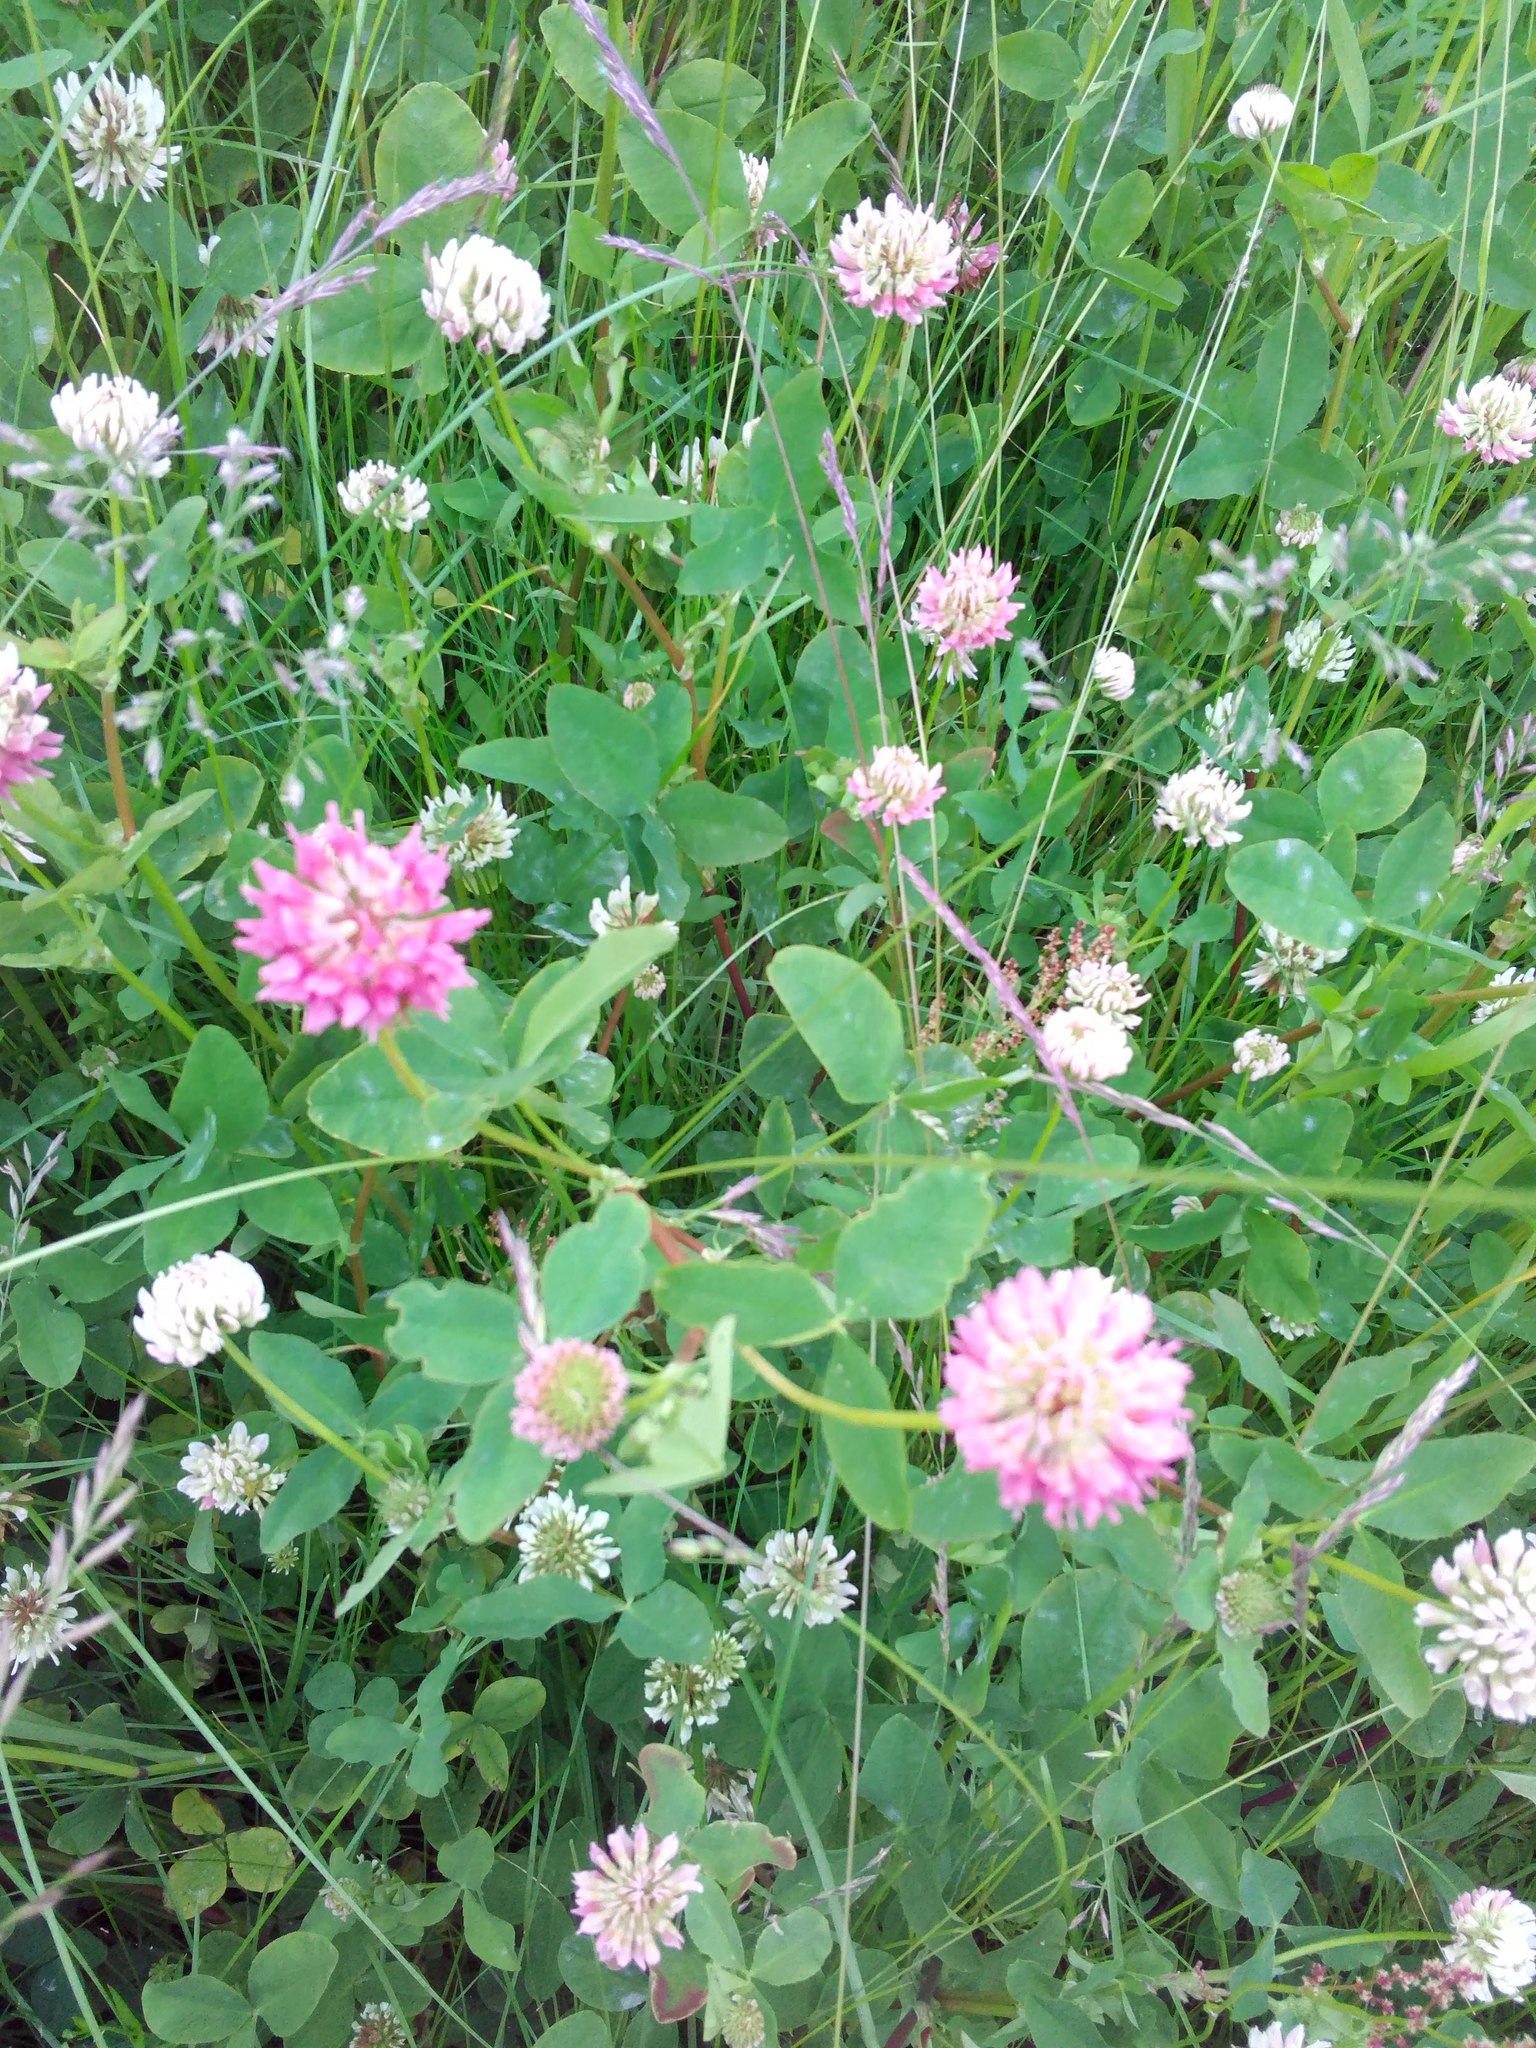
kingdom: Plantae
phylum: Tracheophyta
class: Magnoliopsida
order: Fabales
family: Fabaceae
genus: Trifolium
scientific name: Trifolium hybridum
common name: Alsike clover
